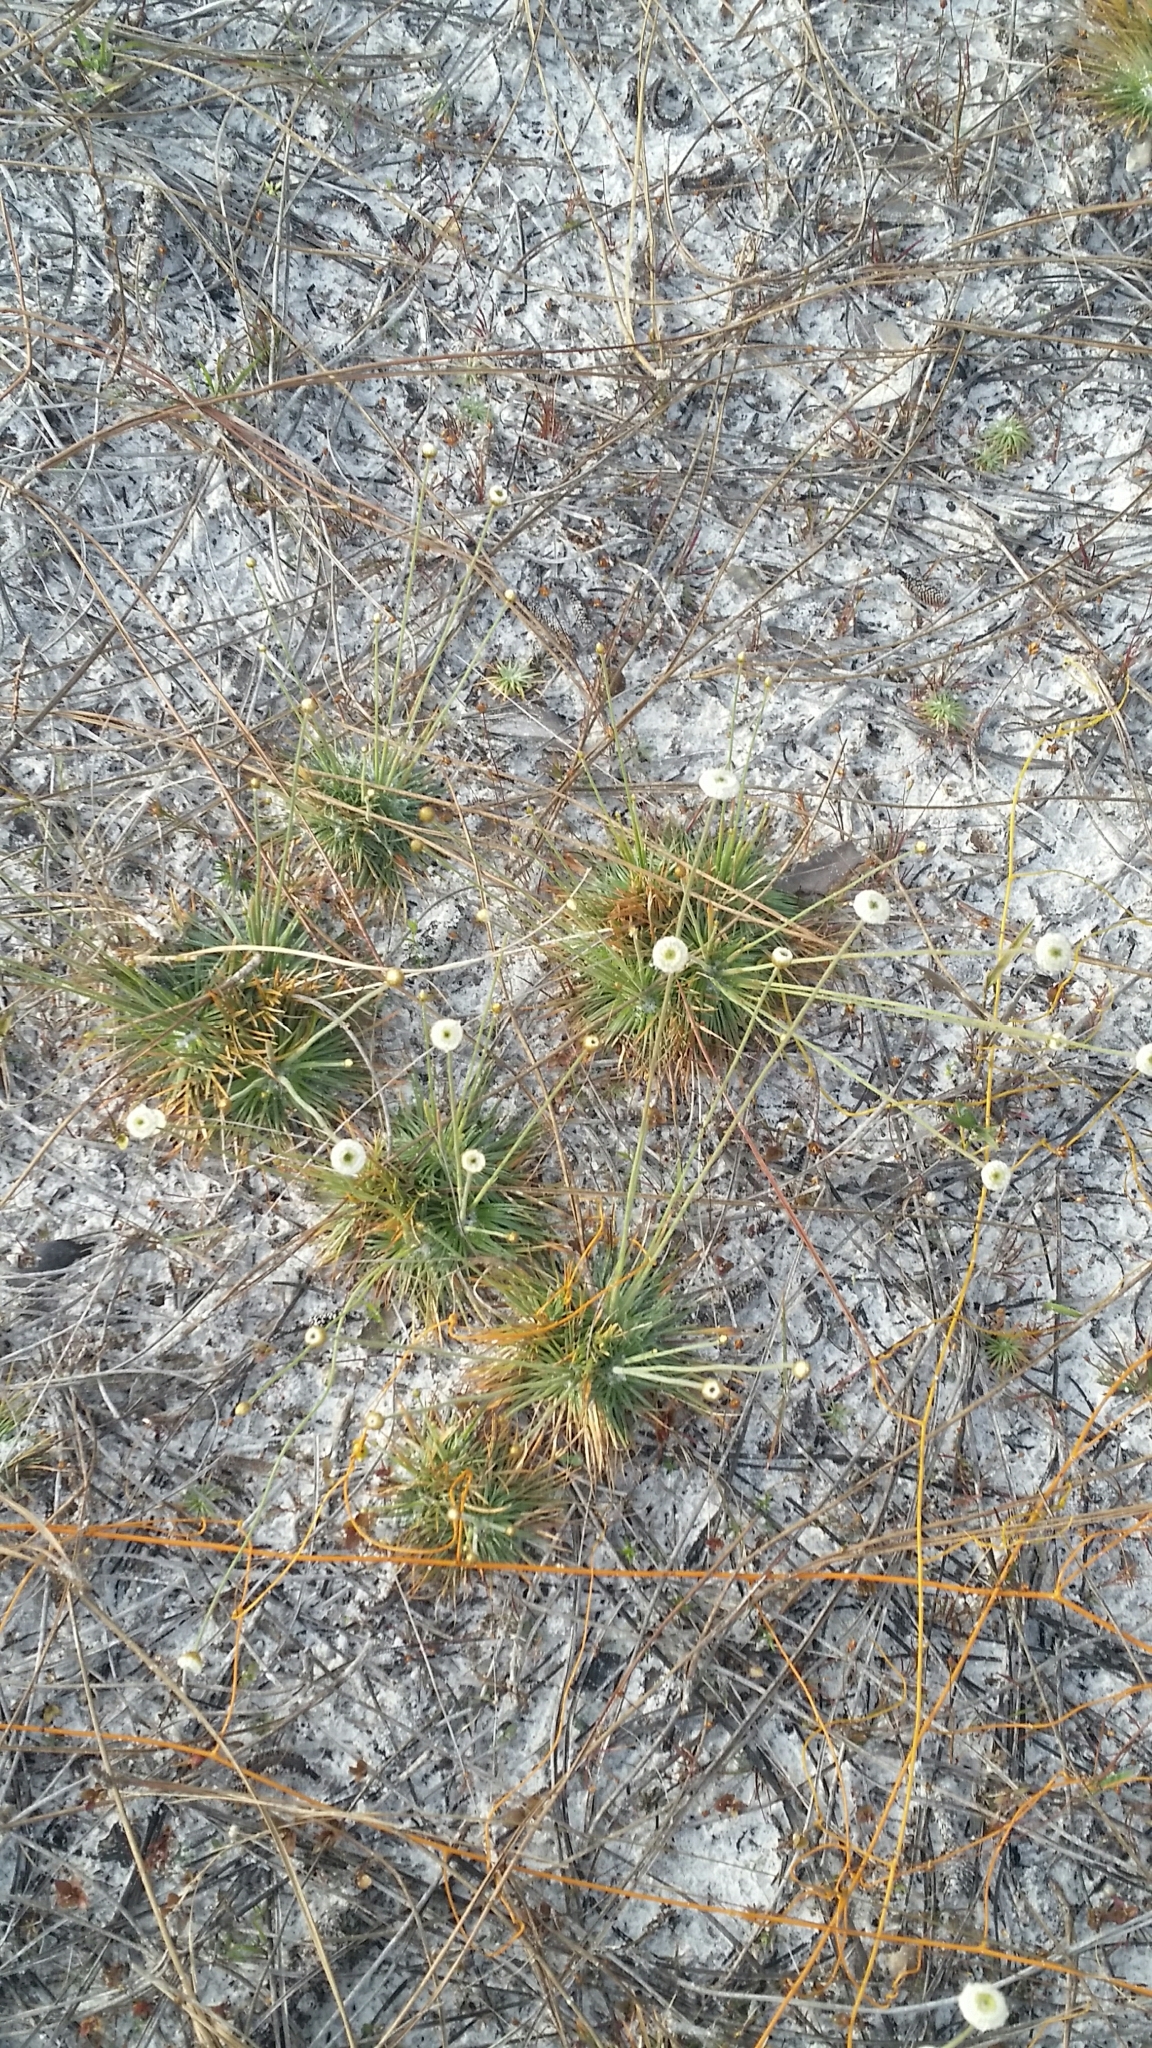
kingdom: Plantae
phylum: Tracheophyta
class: Liliopsida
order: Poales
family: Eriocaulaceae
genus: Syngonanthus
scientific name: Syngonanthus flavidulus
